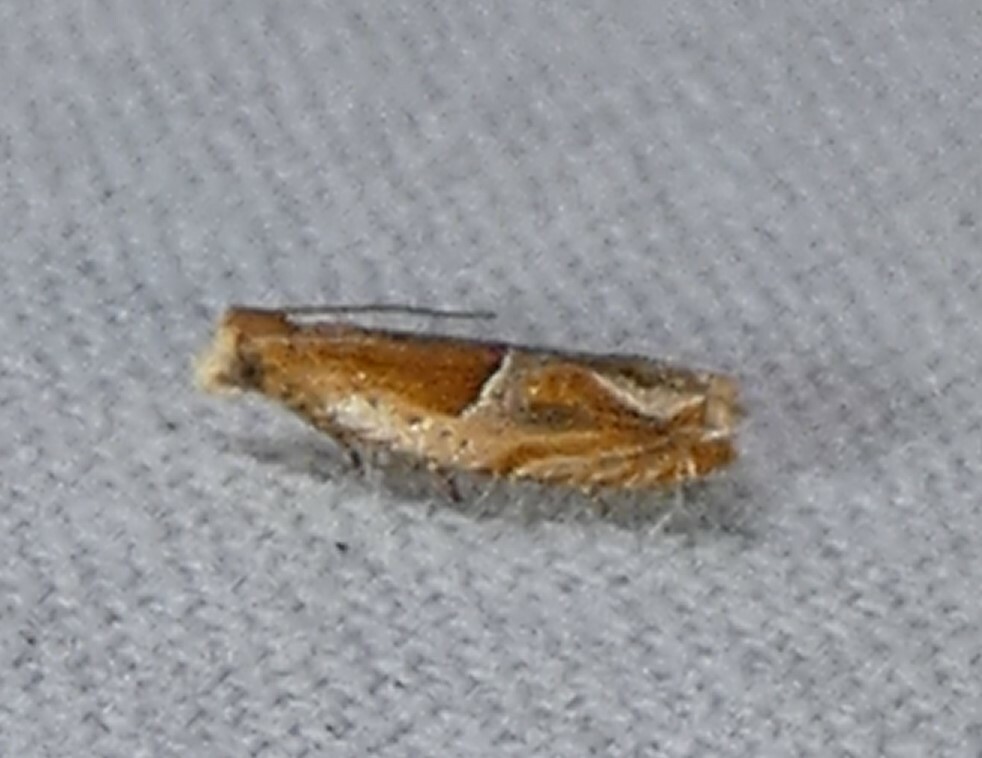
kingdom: Animalia
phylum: Arthropoda
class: Insecta
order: Lepidoptera
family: Tortricidae
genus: Ancylis
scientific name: Ancylis comptana
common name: Little roller
